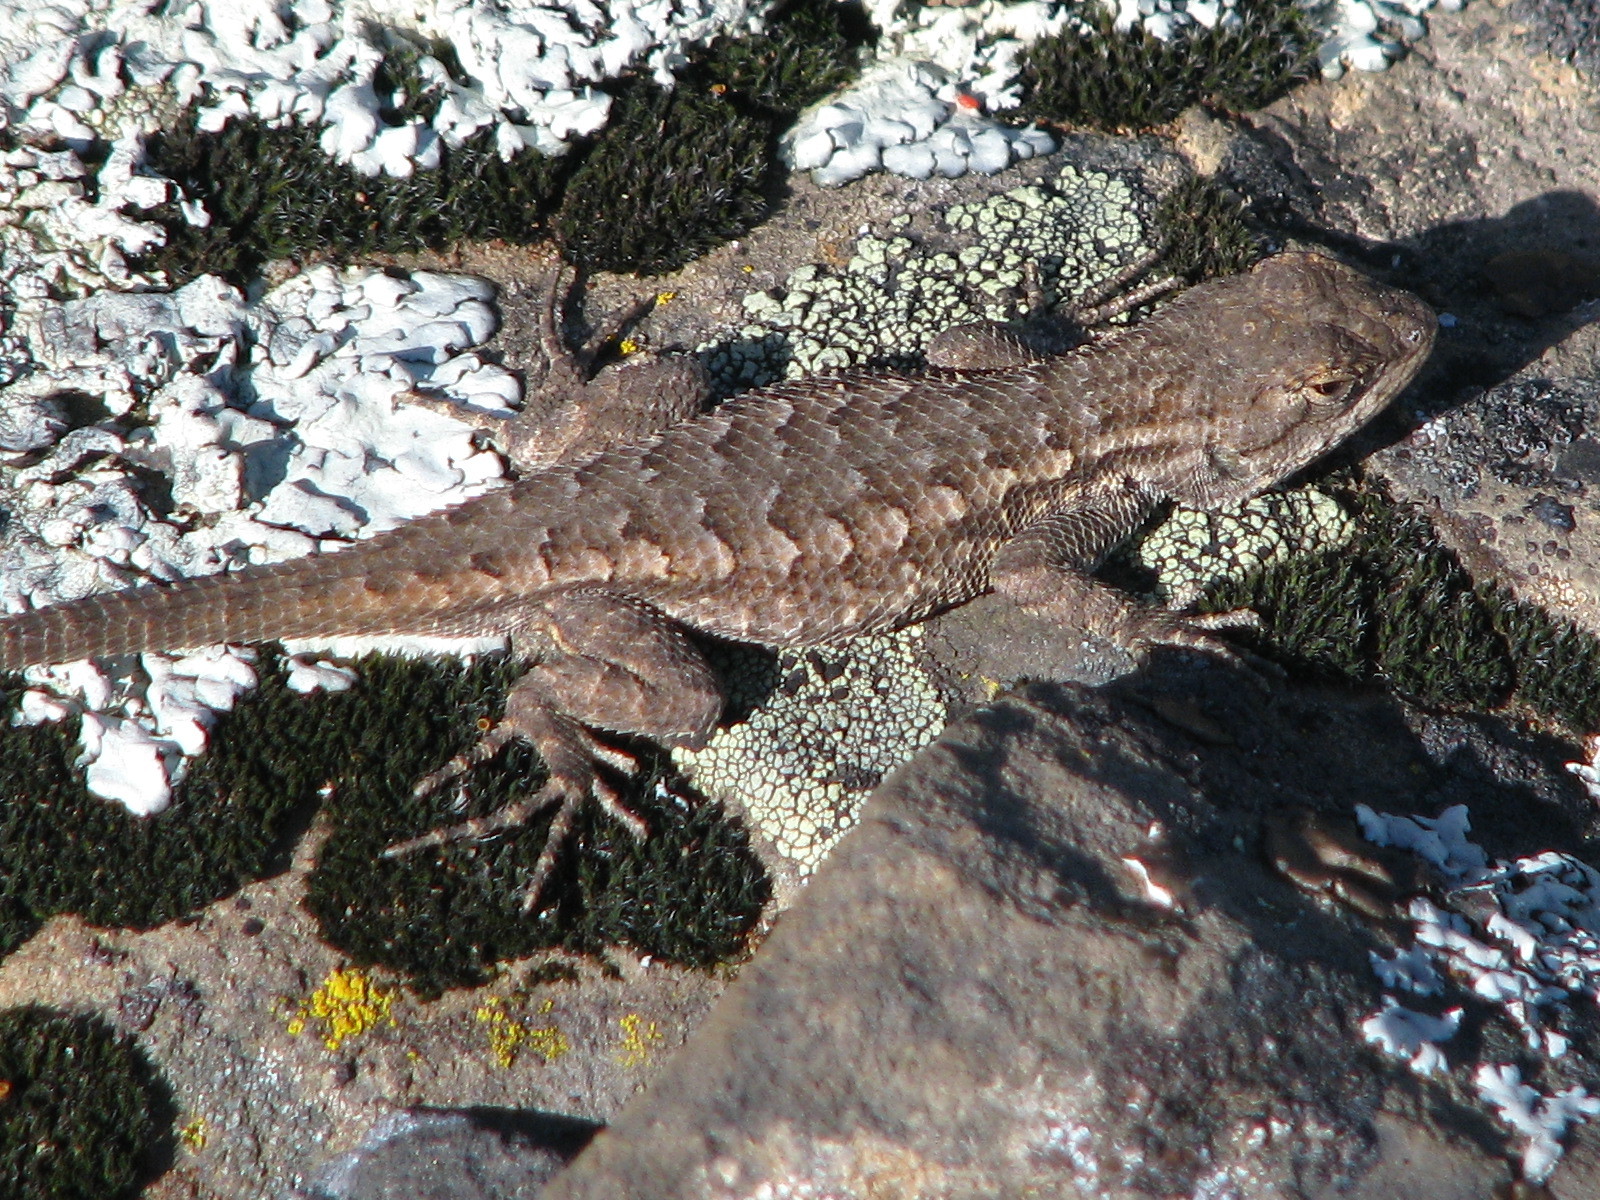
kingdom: Animalia
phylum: Chordata
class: Squamata
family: Phrynosomatidae
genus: Sceloporus
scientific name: Sceloporus occidentalis
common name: Western fence lizard
